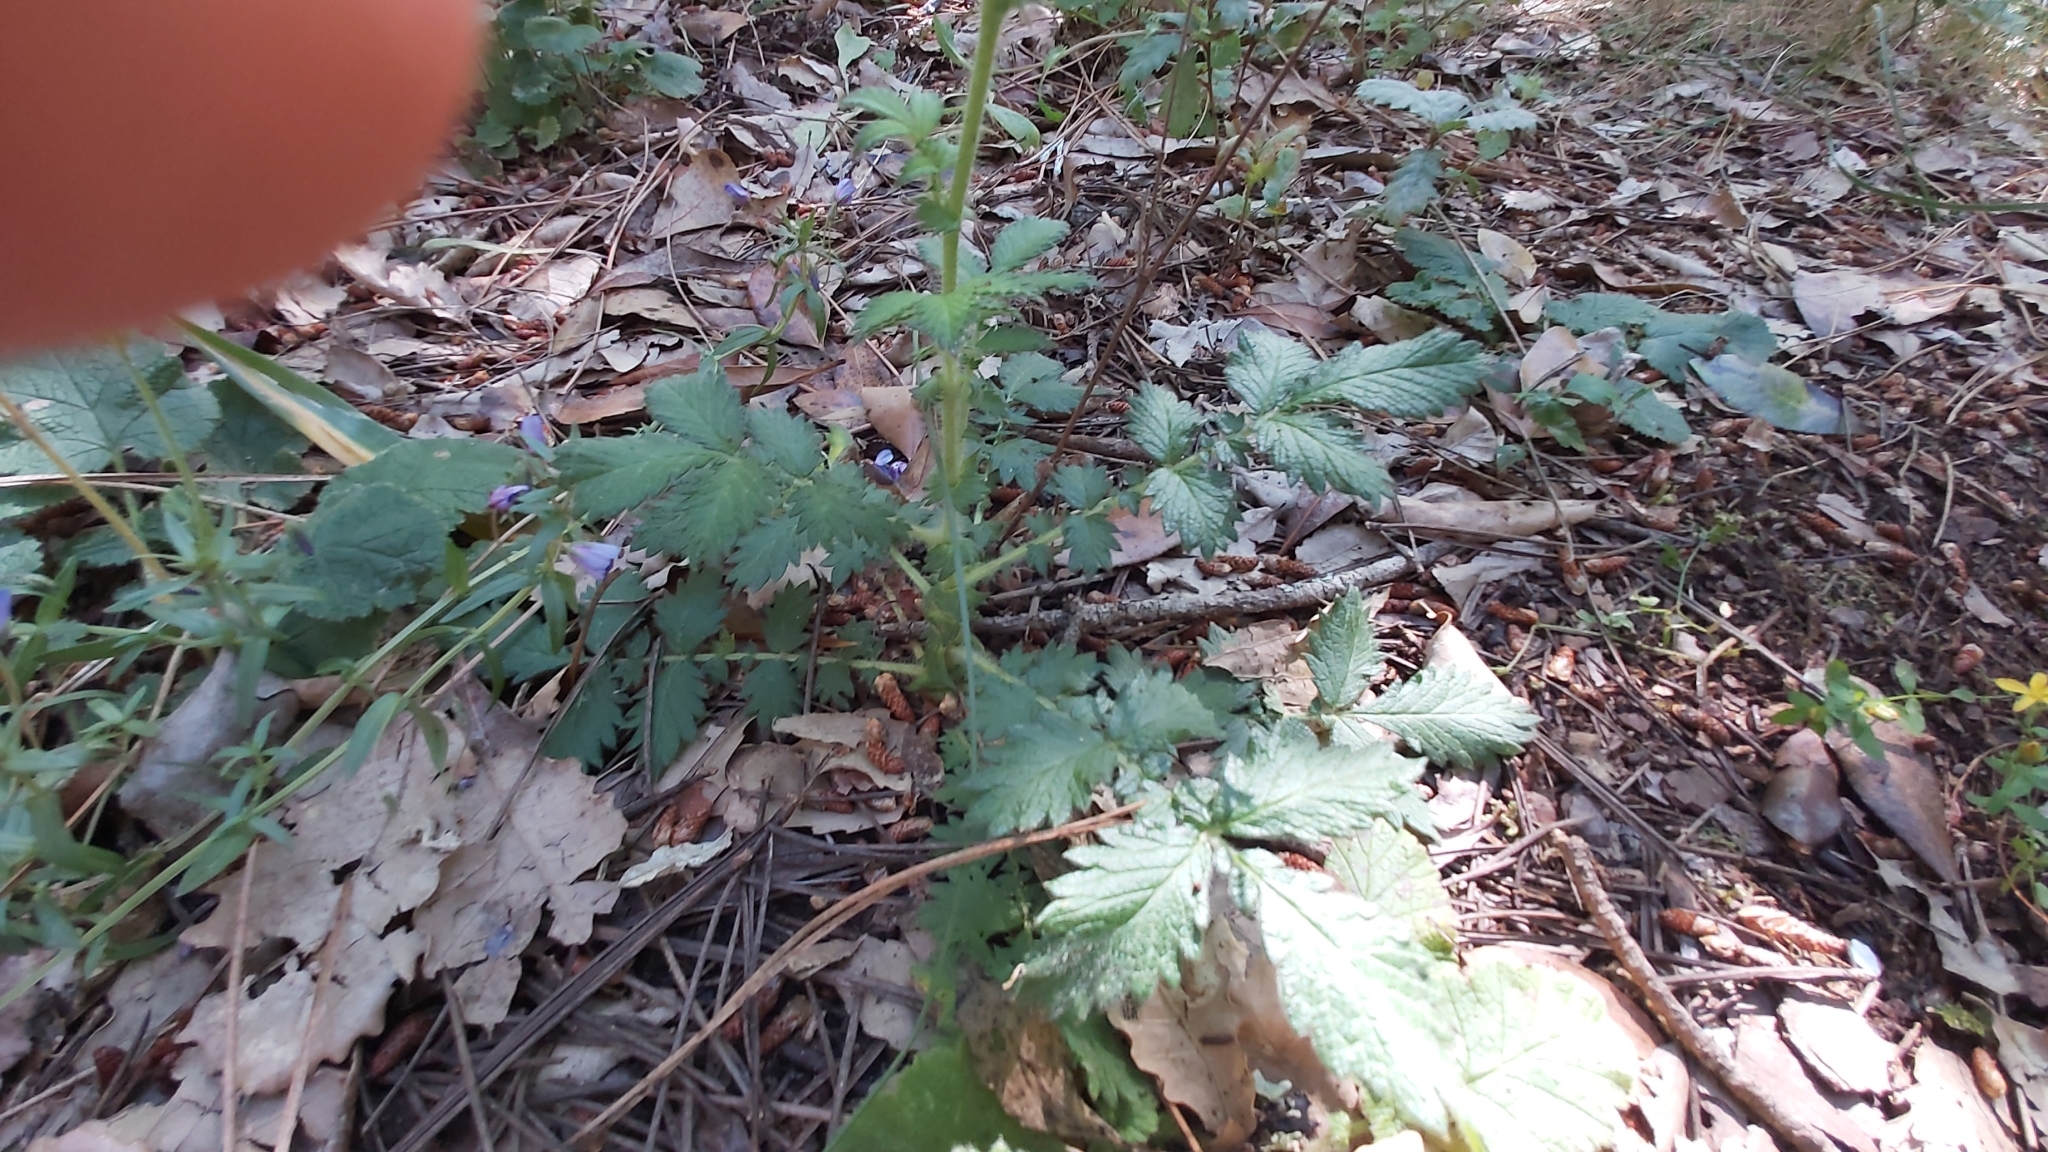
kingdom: Plantae
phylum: Tracheophyta
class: Magnoliopsida
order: Rosales
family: Rosaceae
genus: Agrimonia
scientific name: Agrimonia eupatoria
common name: Agrimony
